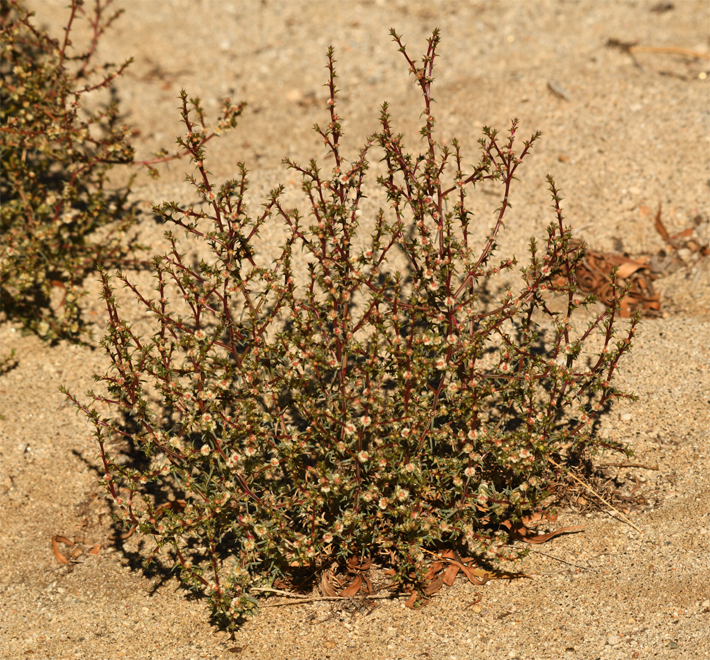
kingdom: Plantae
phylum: Tracheophyta
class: Magnoliopsida
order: Caryophyllales
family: Amaranthaceae
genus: Salsola
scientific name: Salsola australis
